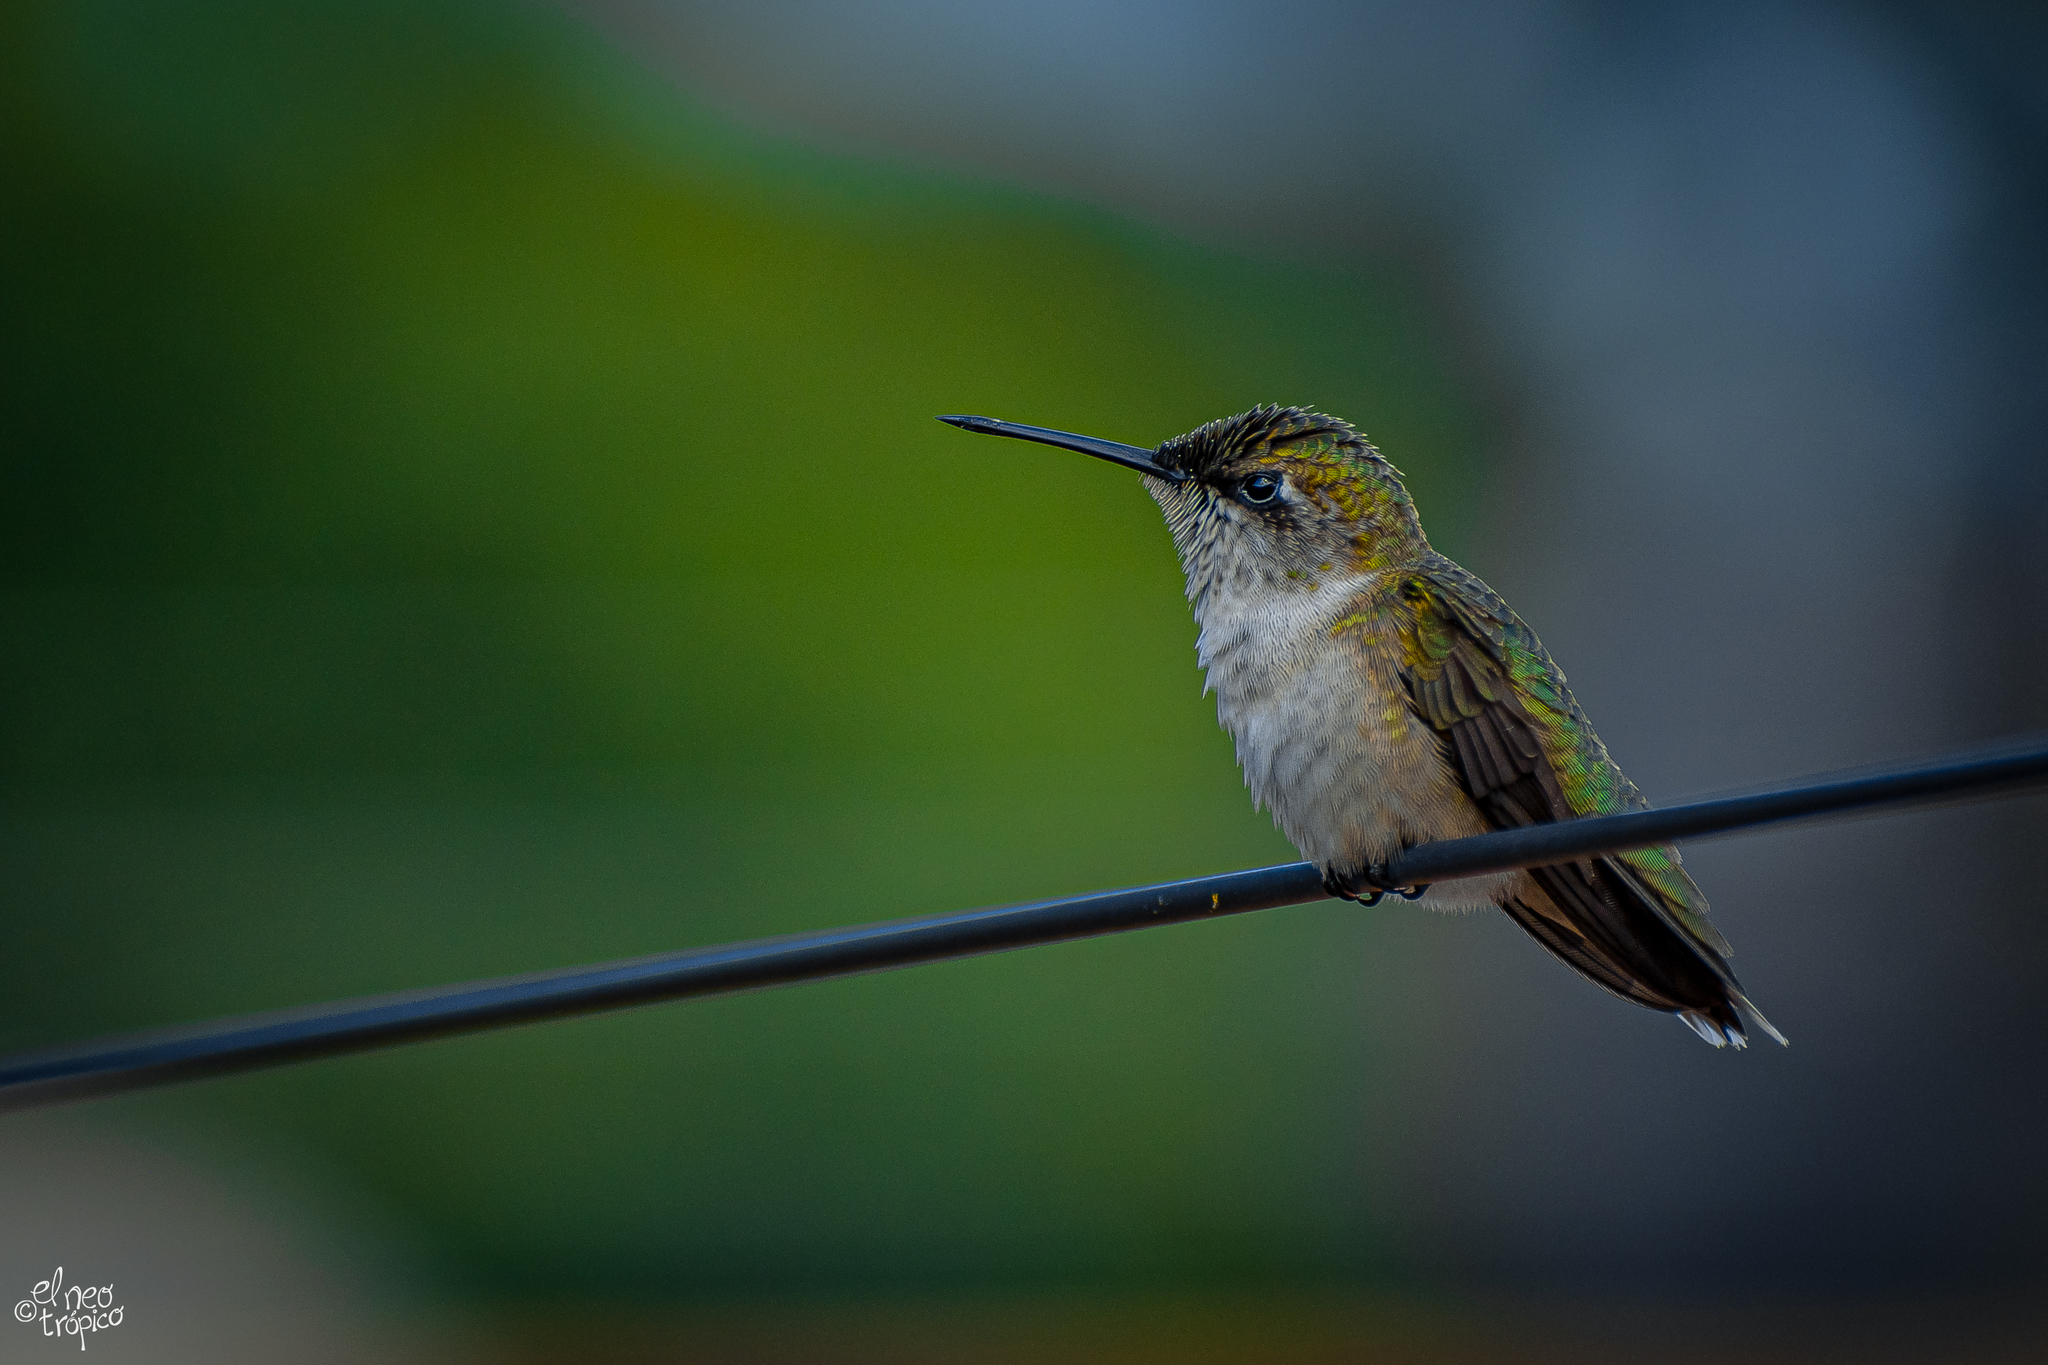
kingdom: Animalia
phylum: Chordata
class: Aves
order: Apodiformes
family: Trochilidae
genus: Archilochus
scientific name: Archilochus colubris
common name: Ruby-throated hummingbird
